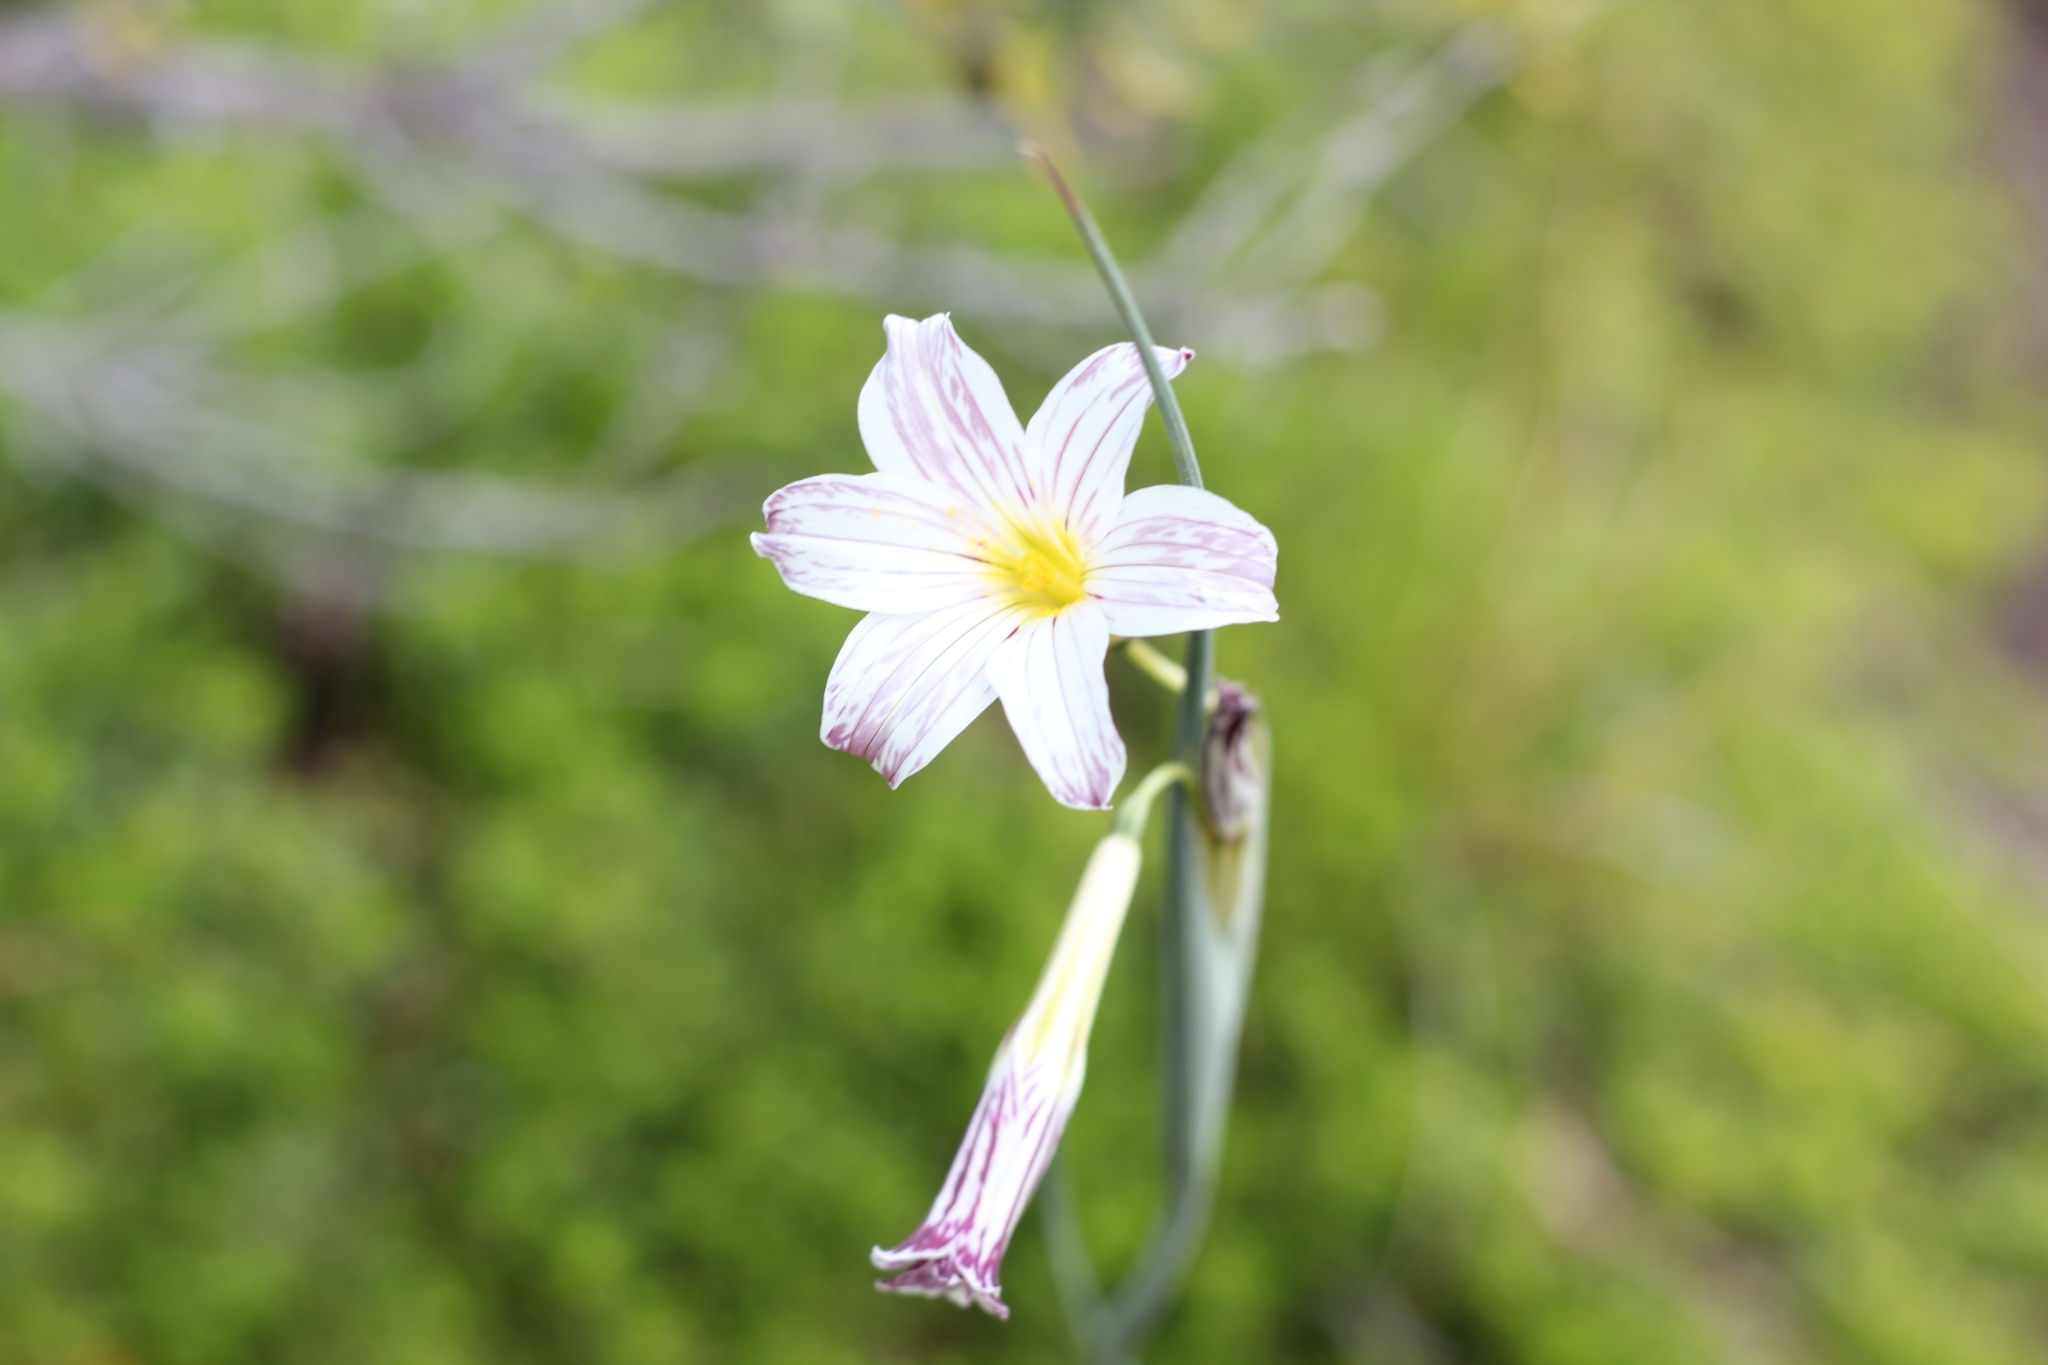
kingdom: Plantae
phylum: Tracheophyta
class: Liliopsida
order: Asparagales
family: Iridaceae
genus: Olsynium
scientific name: Olsynium biflorum
